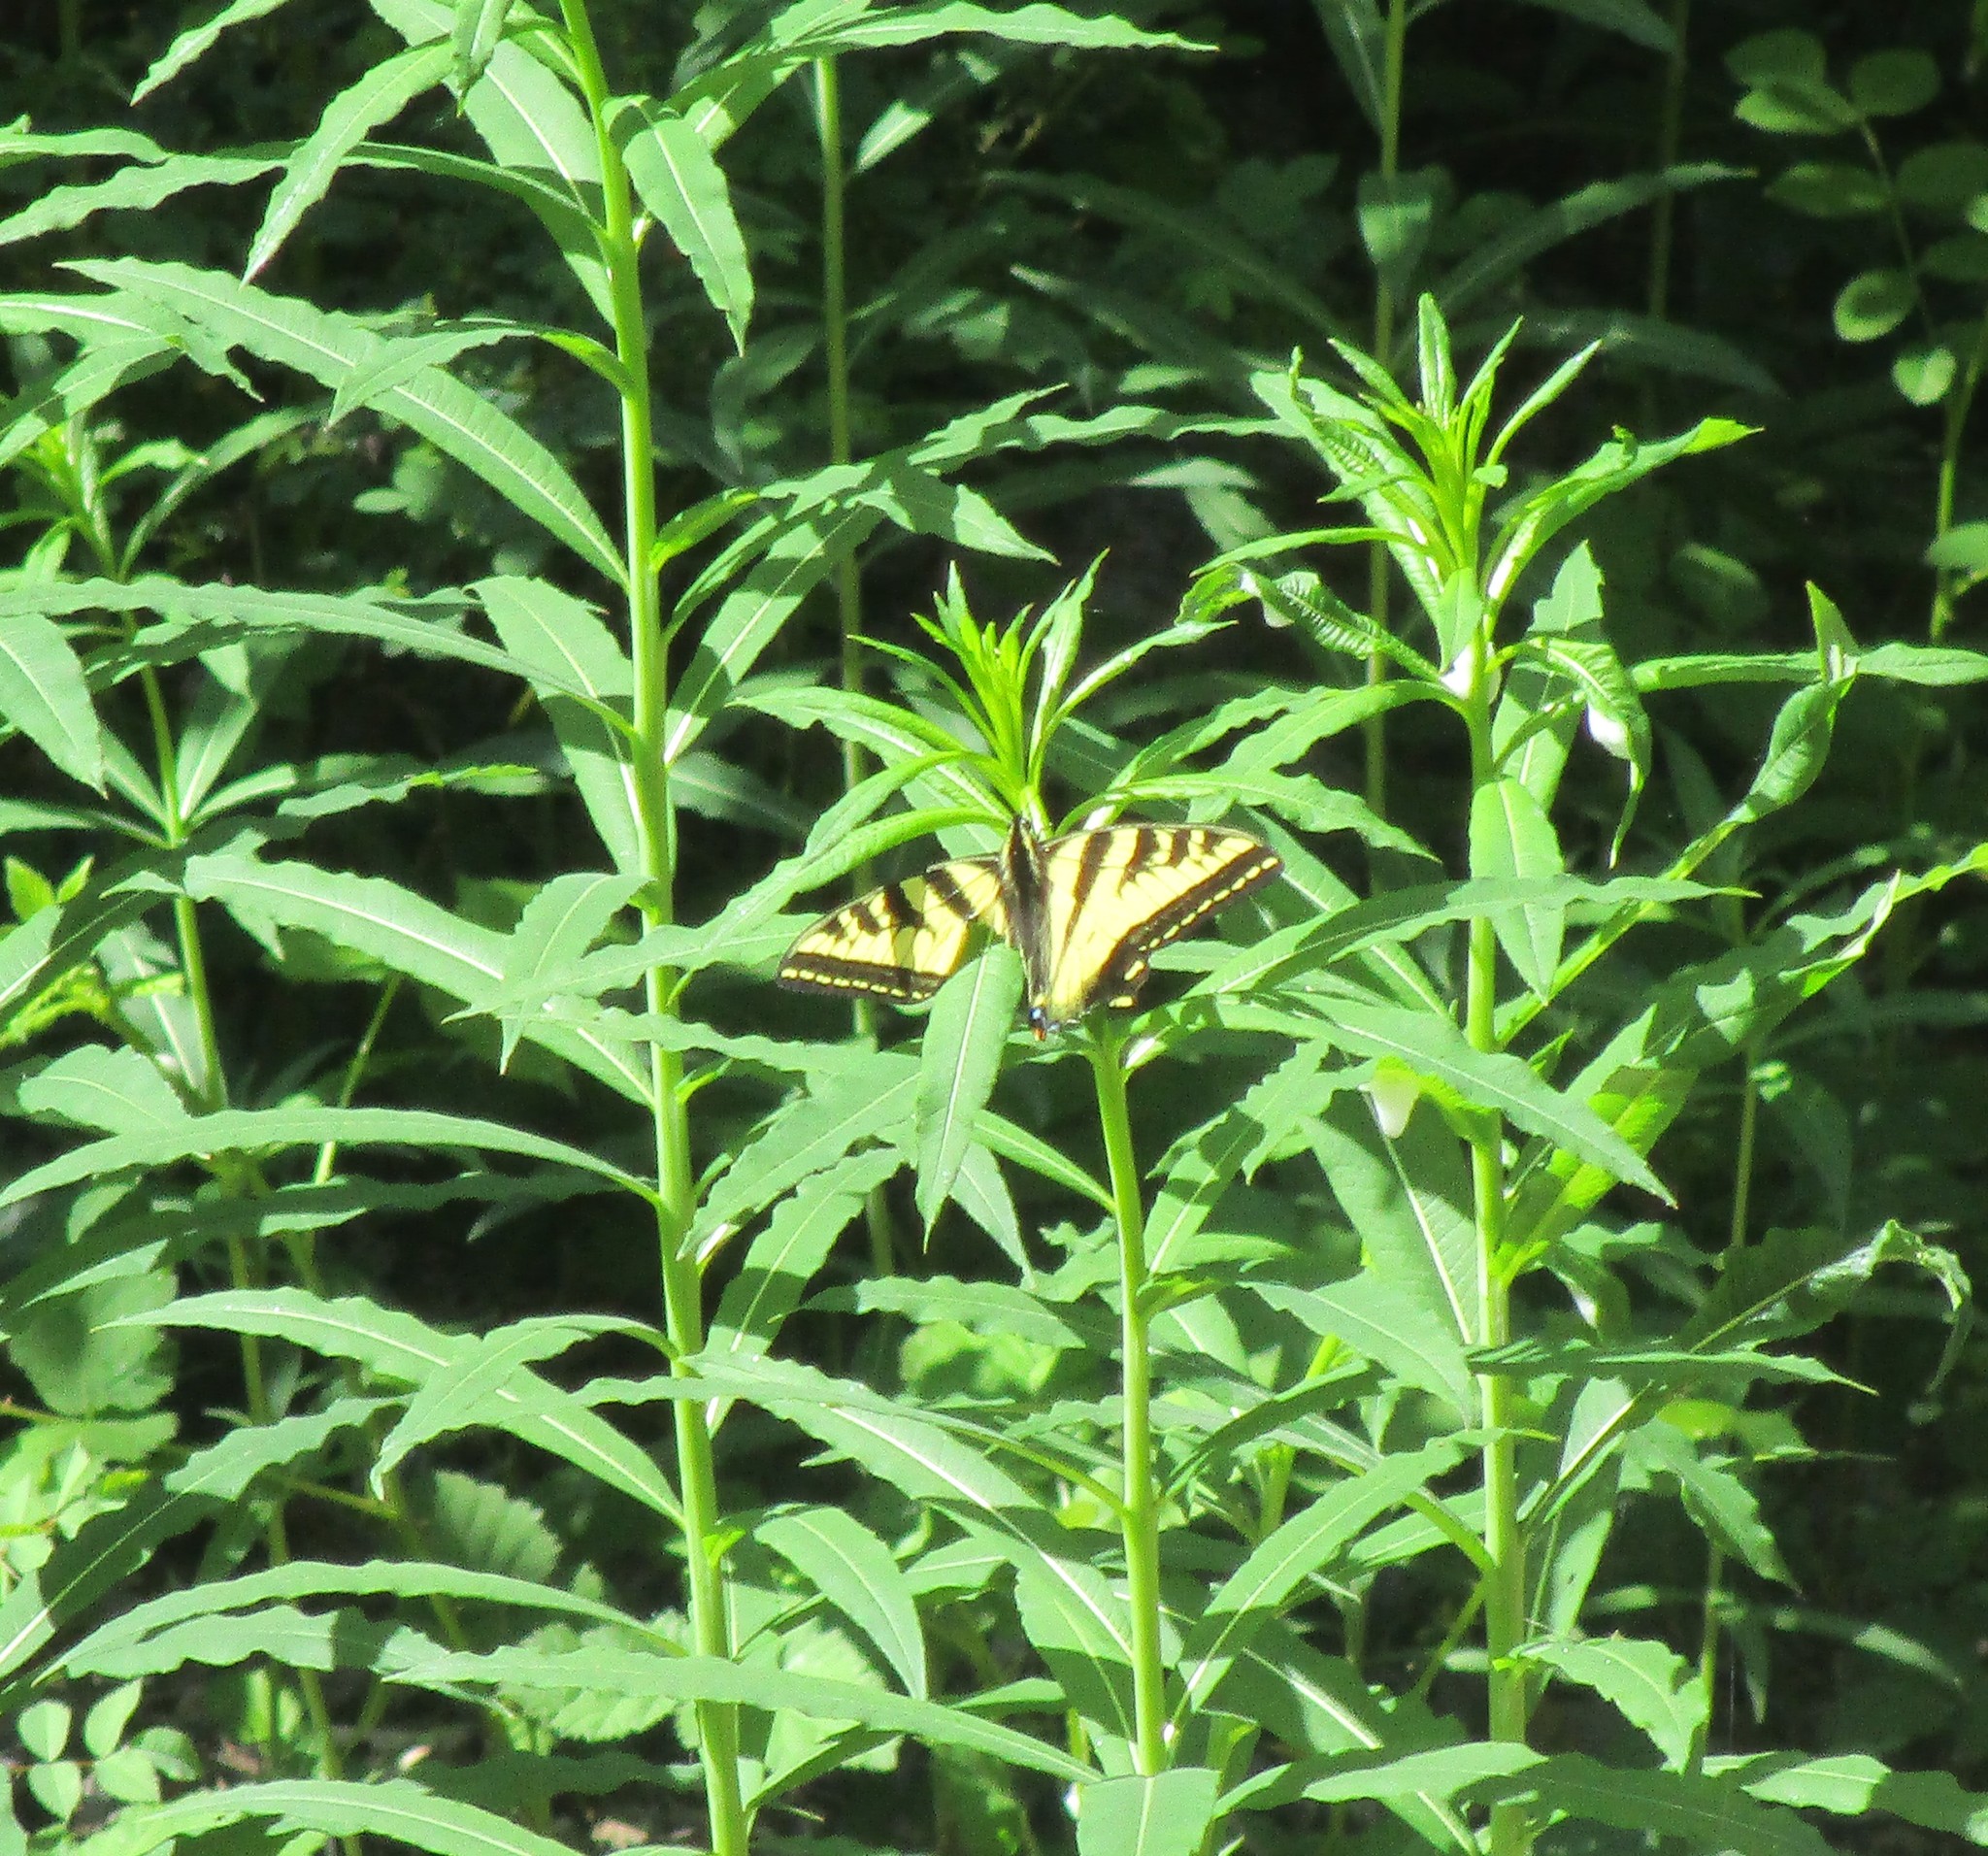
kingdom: Animalia
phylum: Arthropoda
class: Insecta
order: Lepidoptera
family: Papilionidae
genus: Papilio
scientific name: Papilio rutulus
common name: Western tiger swallowtail
